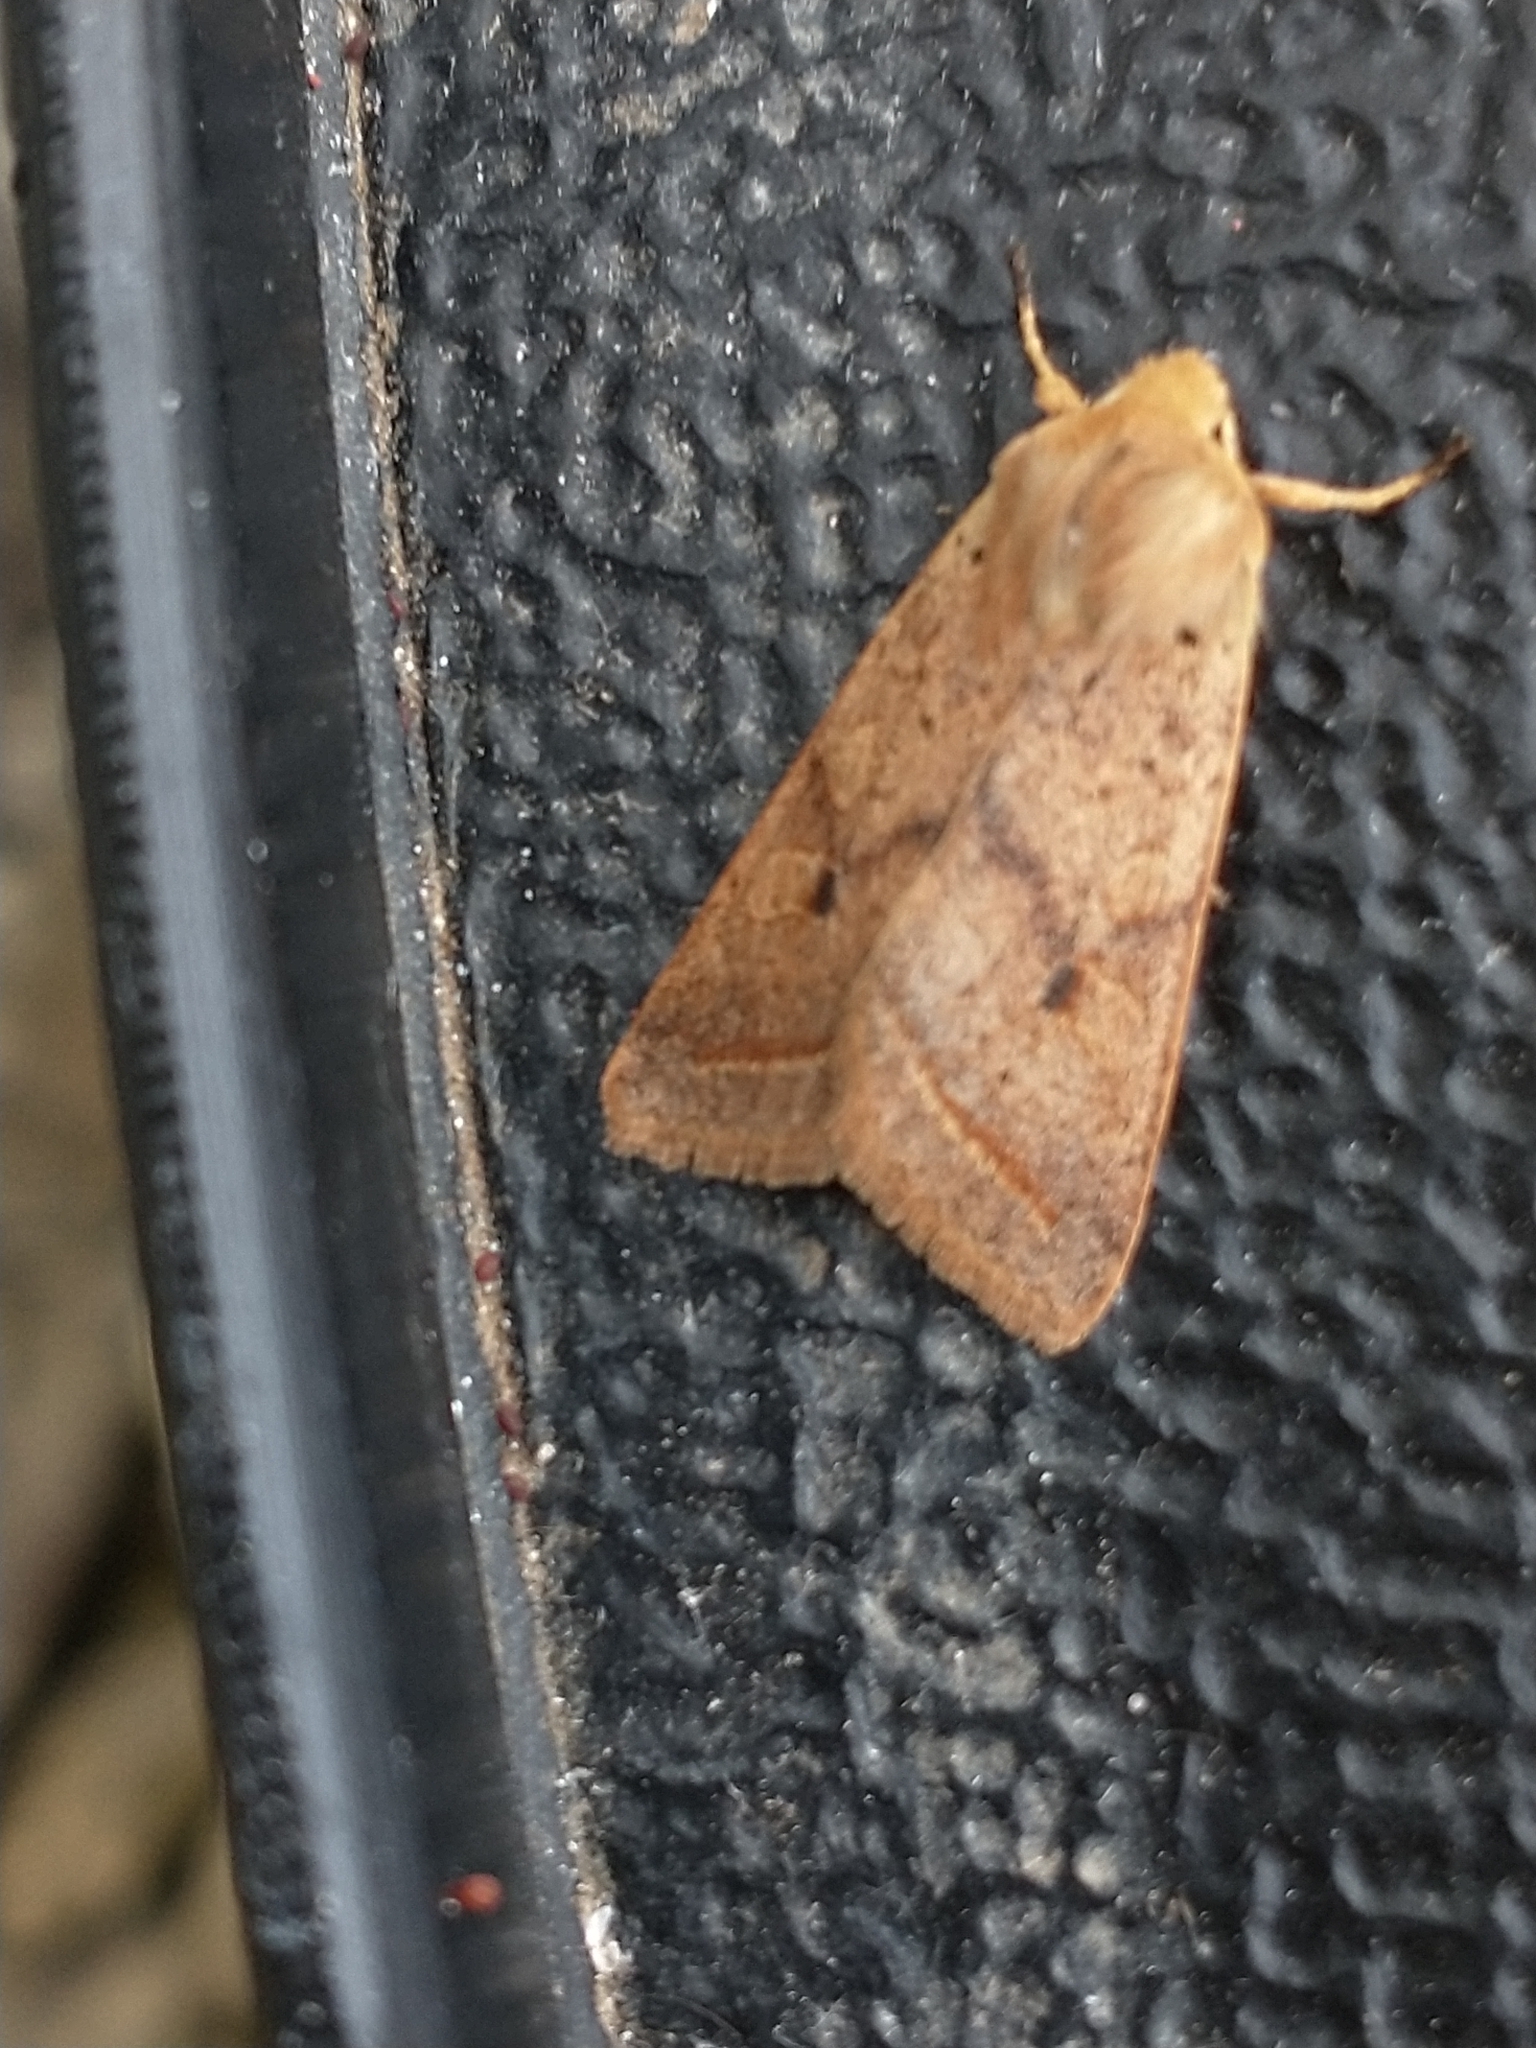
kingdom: Animalia
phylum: Arthropoda
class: Insecta
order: Lepidoptera
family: Noctuidae
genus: Agrochola
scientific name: Agrochola macilenta
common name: Yellow-line quaker
